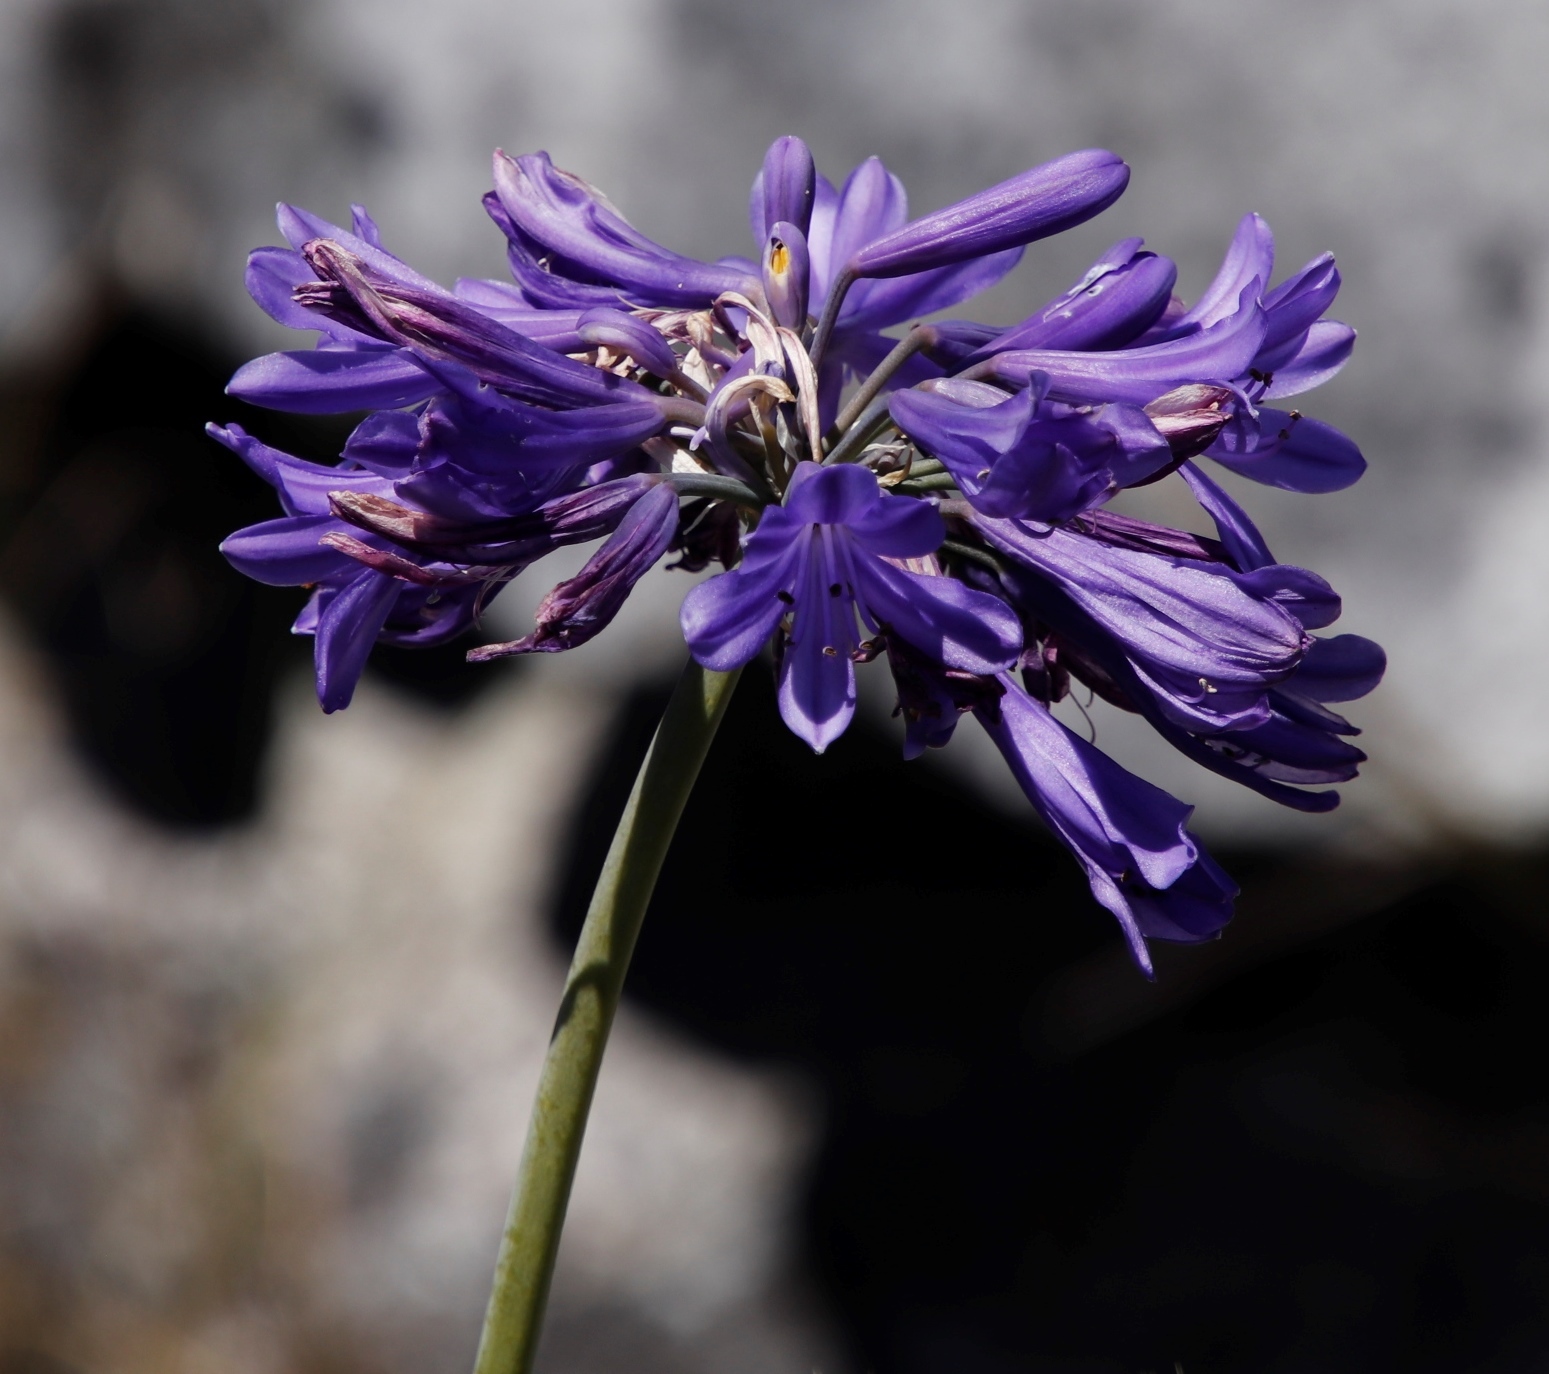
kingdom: Plantae
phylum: Tracheophyta
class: Liliopsida
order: Asparagales
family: Amaryllidaceae
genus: Agapanthus
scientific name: Agapanthus africanus
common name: Lily-of-the-nile
